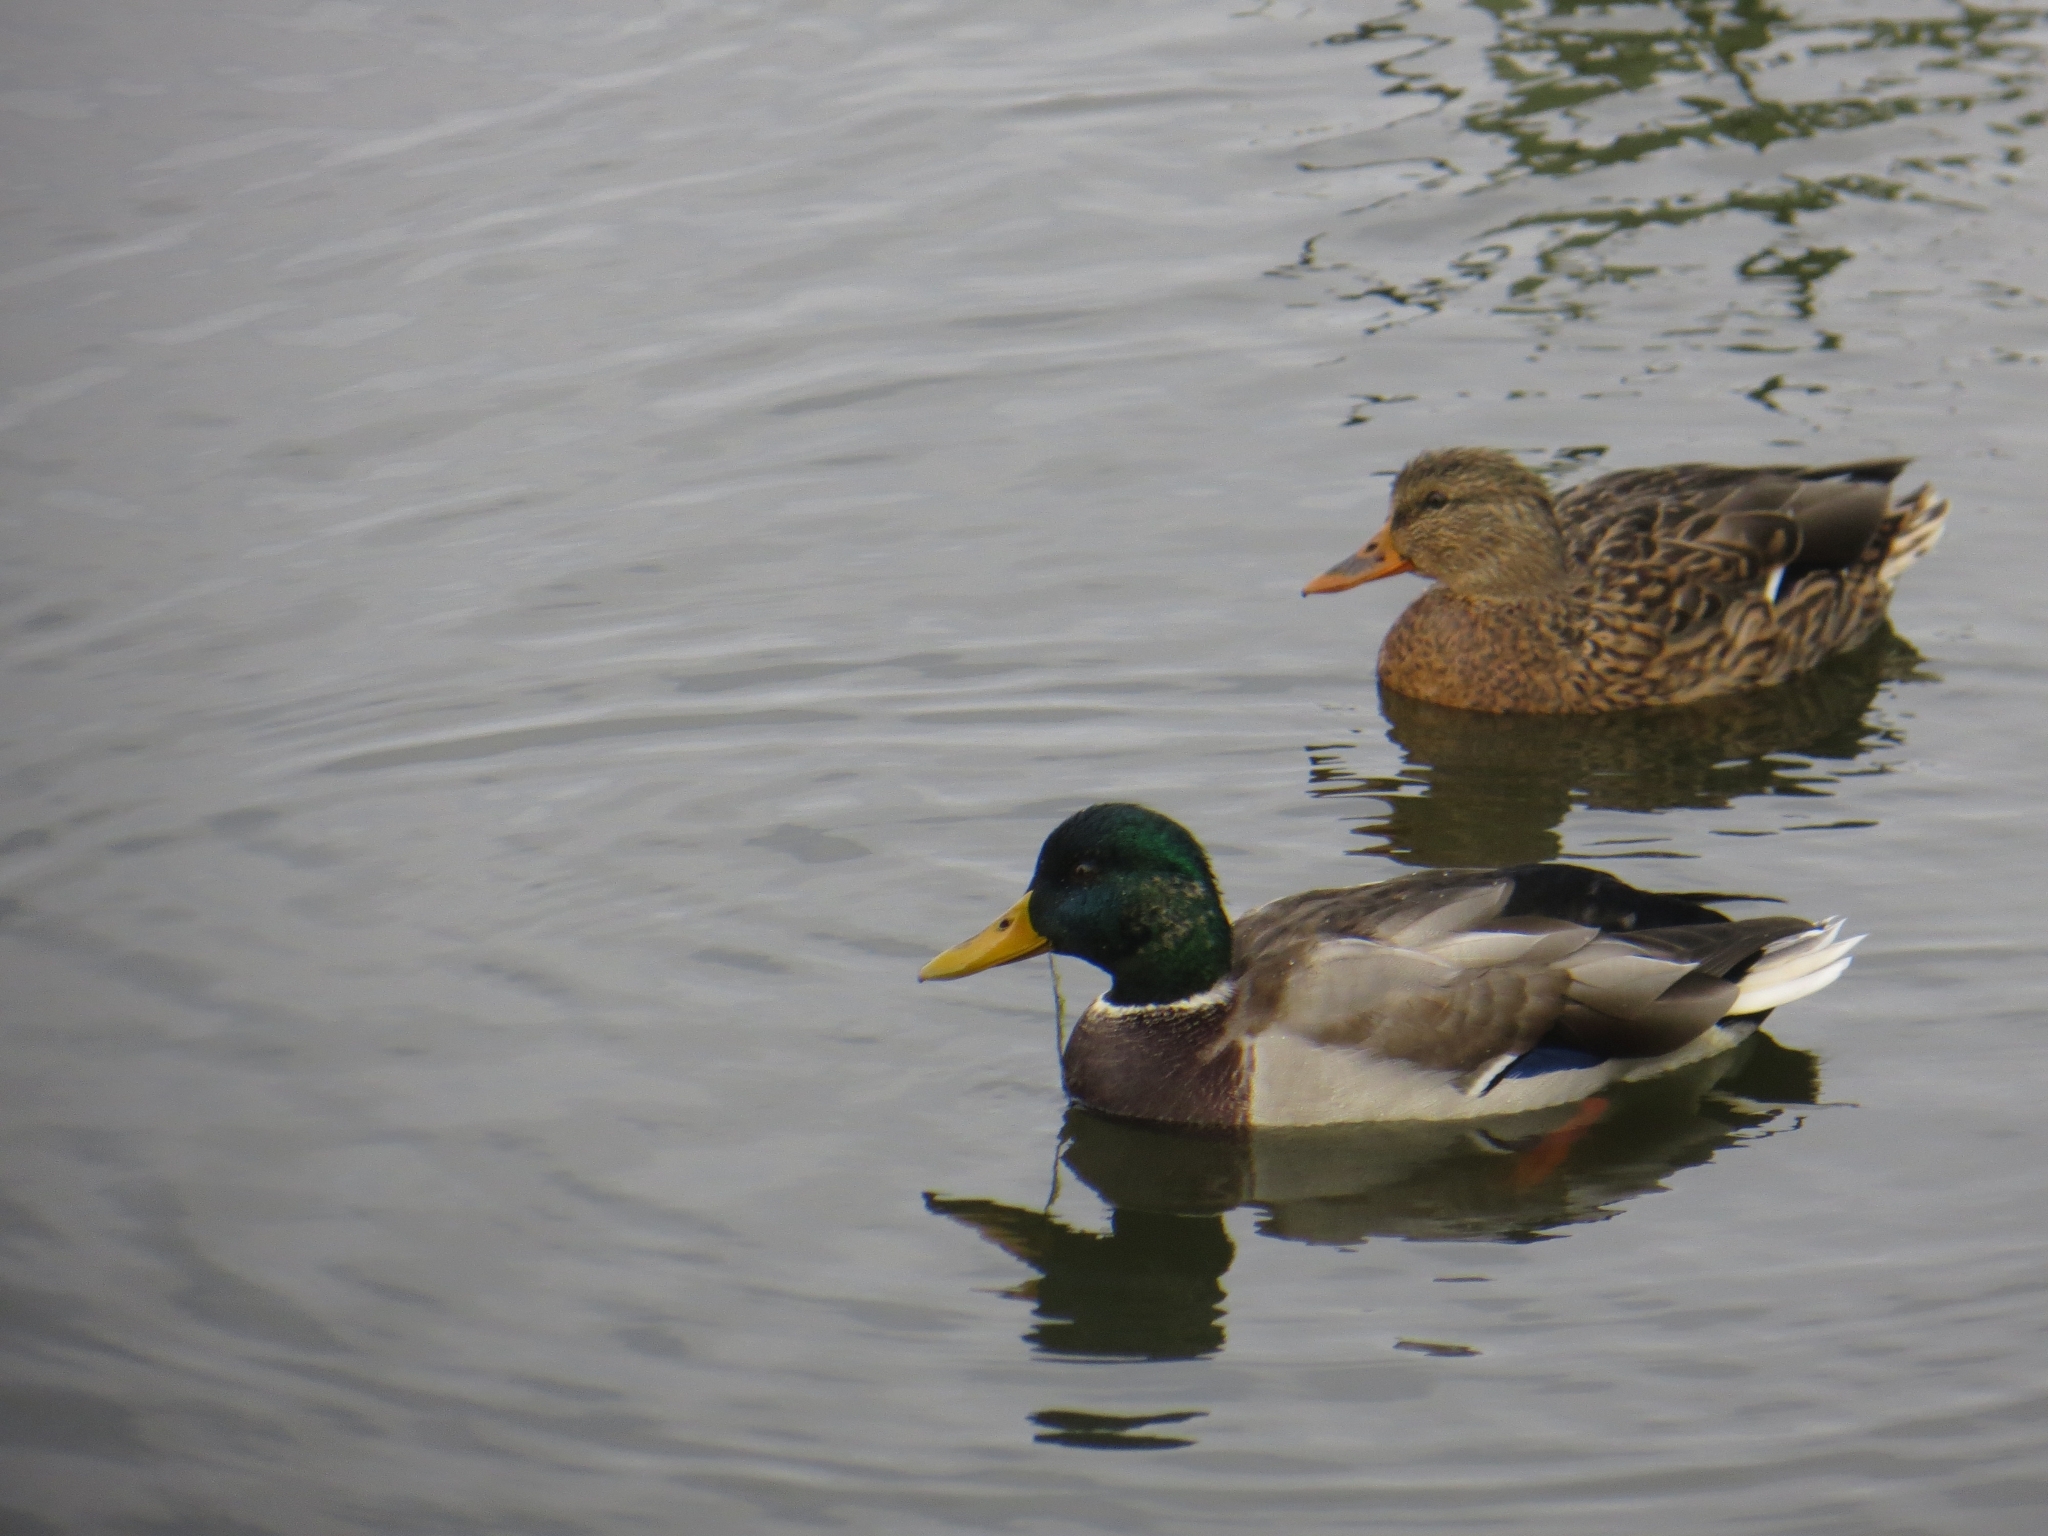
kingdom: Animalia
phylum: Chordata
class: Aves
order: Anseriformes
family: Anatidae
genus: Anas
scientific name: Anas platyrhynchos
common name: Mallard
